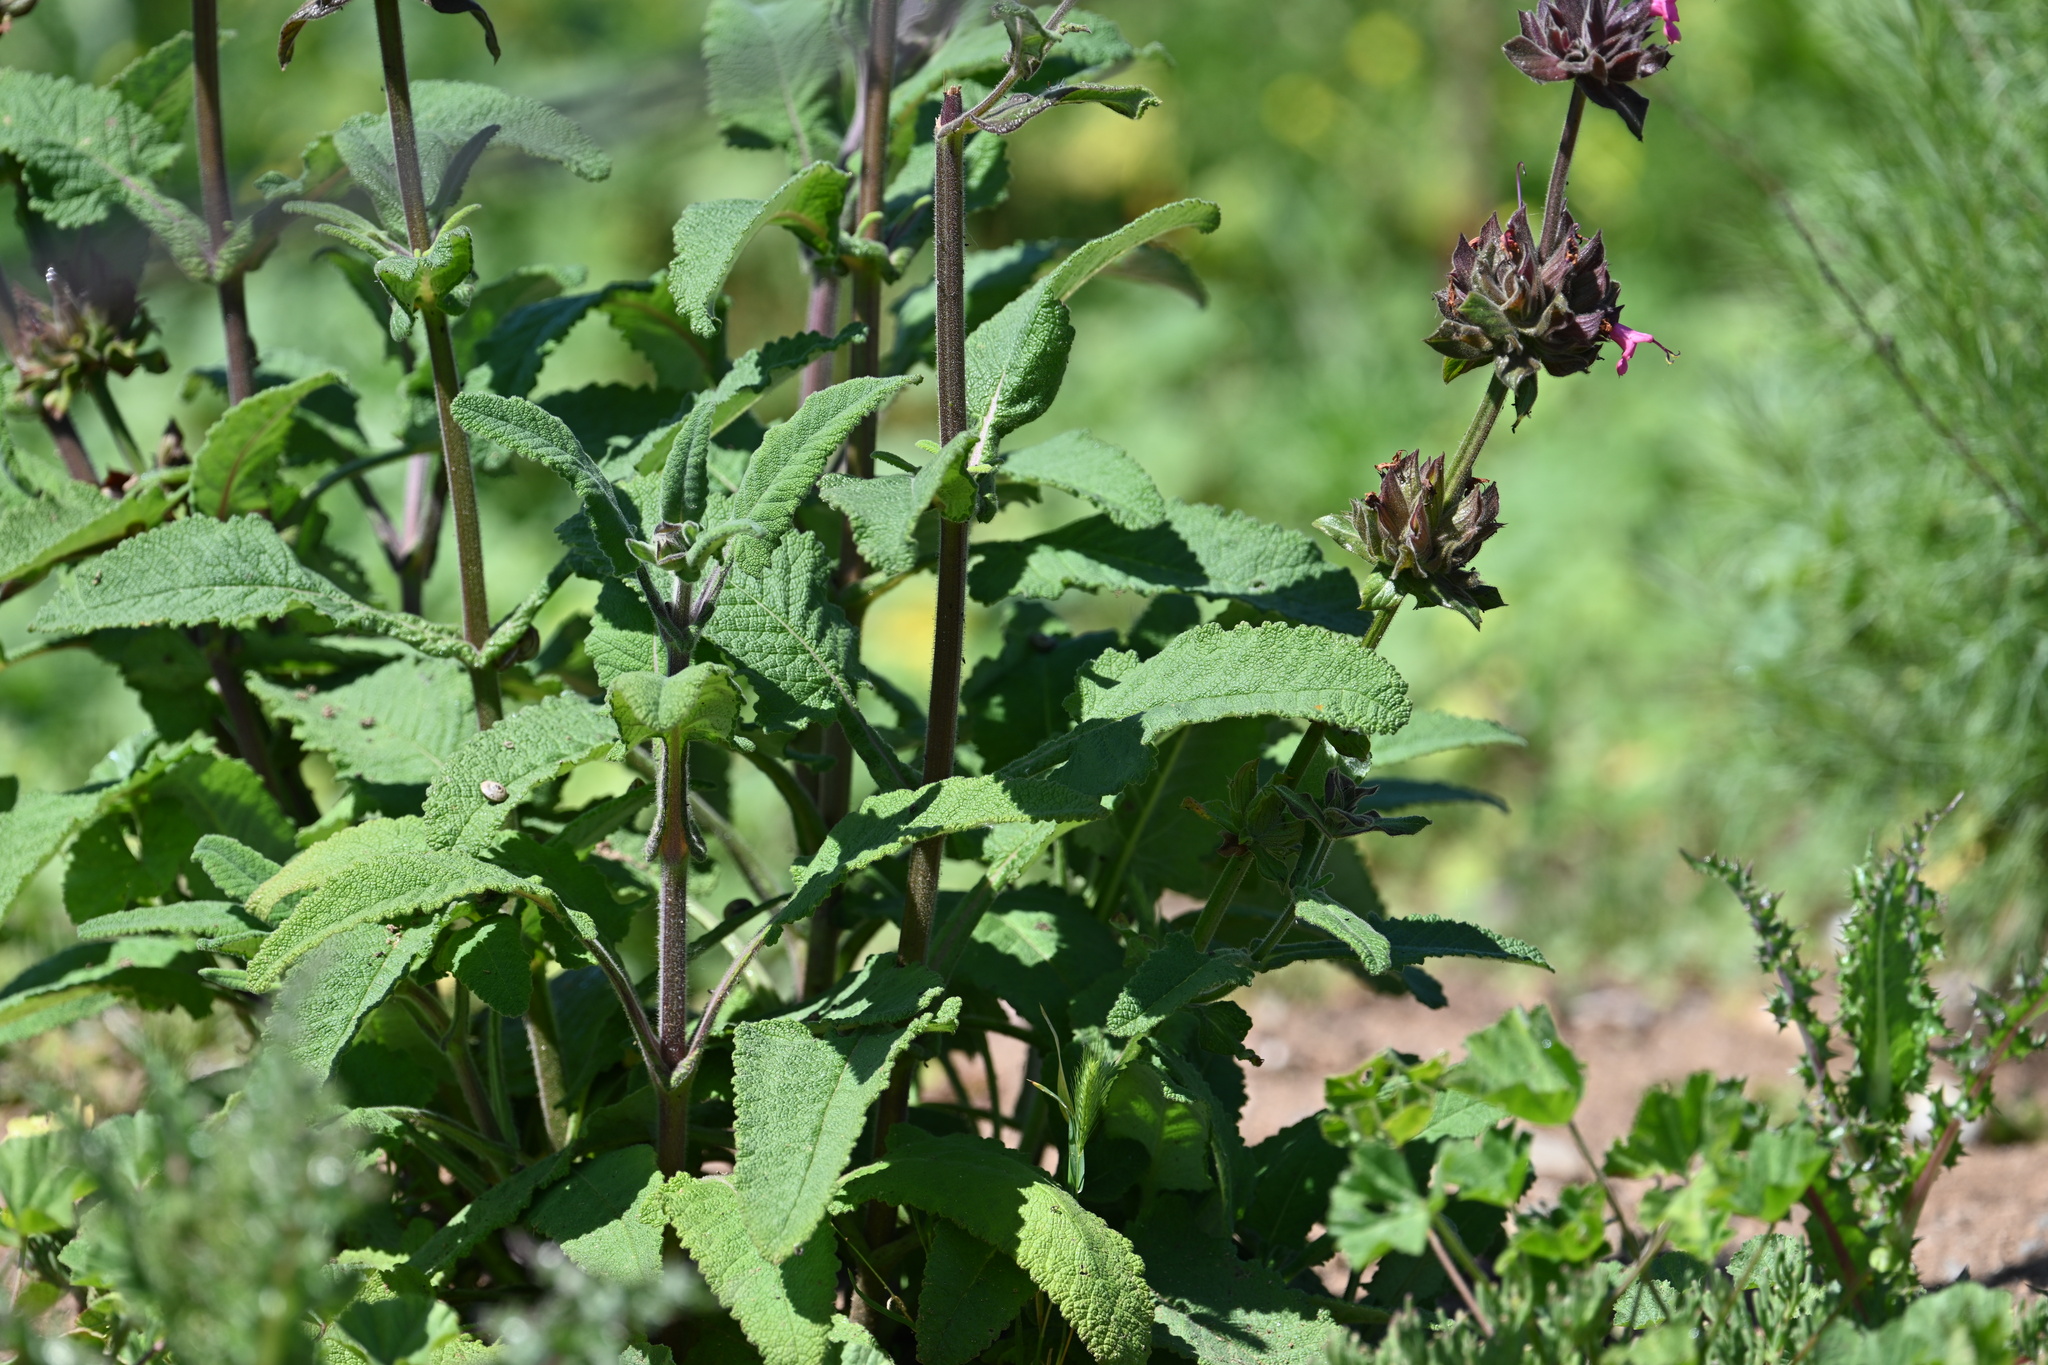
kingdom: Plantae
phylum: Tracheophyta
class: Magnoliopsida
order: Lamiales
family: Lamiaceae
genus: Salvia
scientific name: Salvia spathacea
